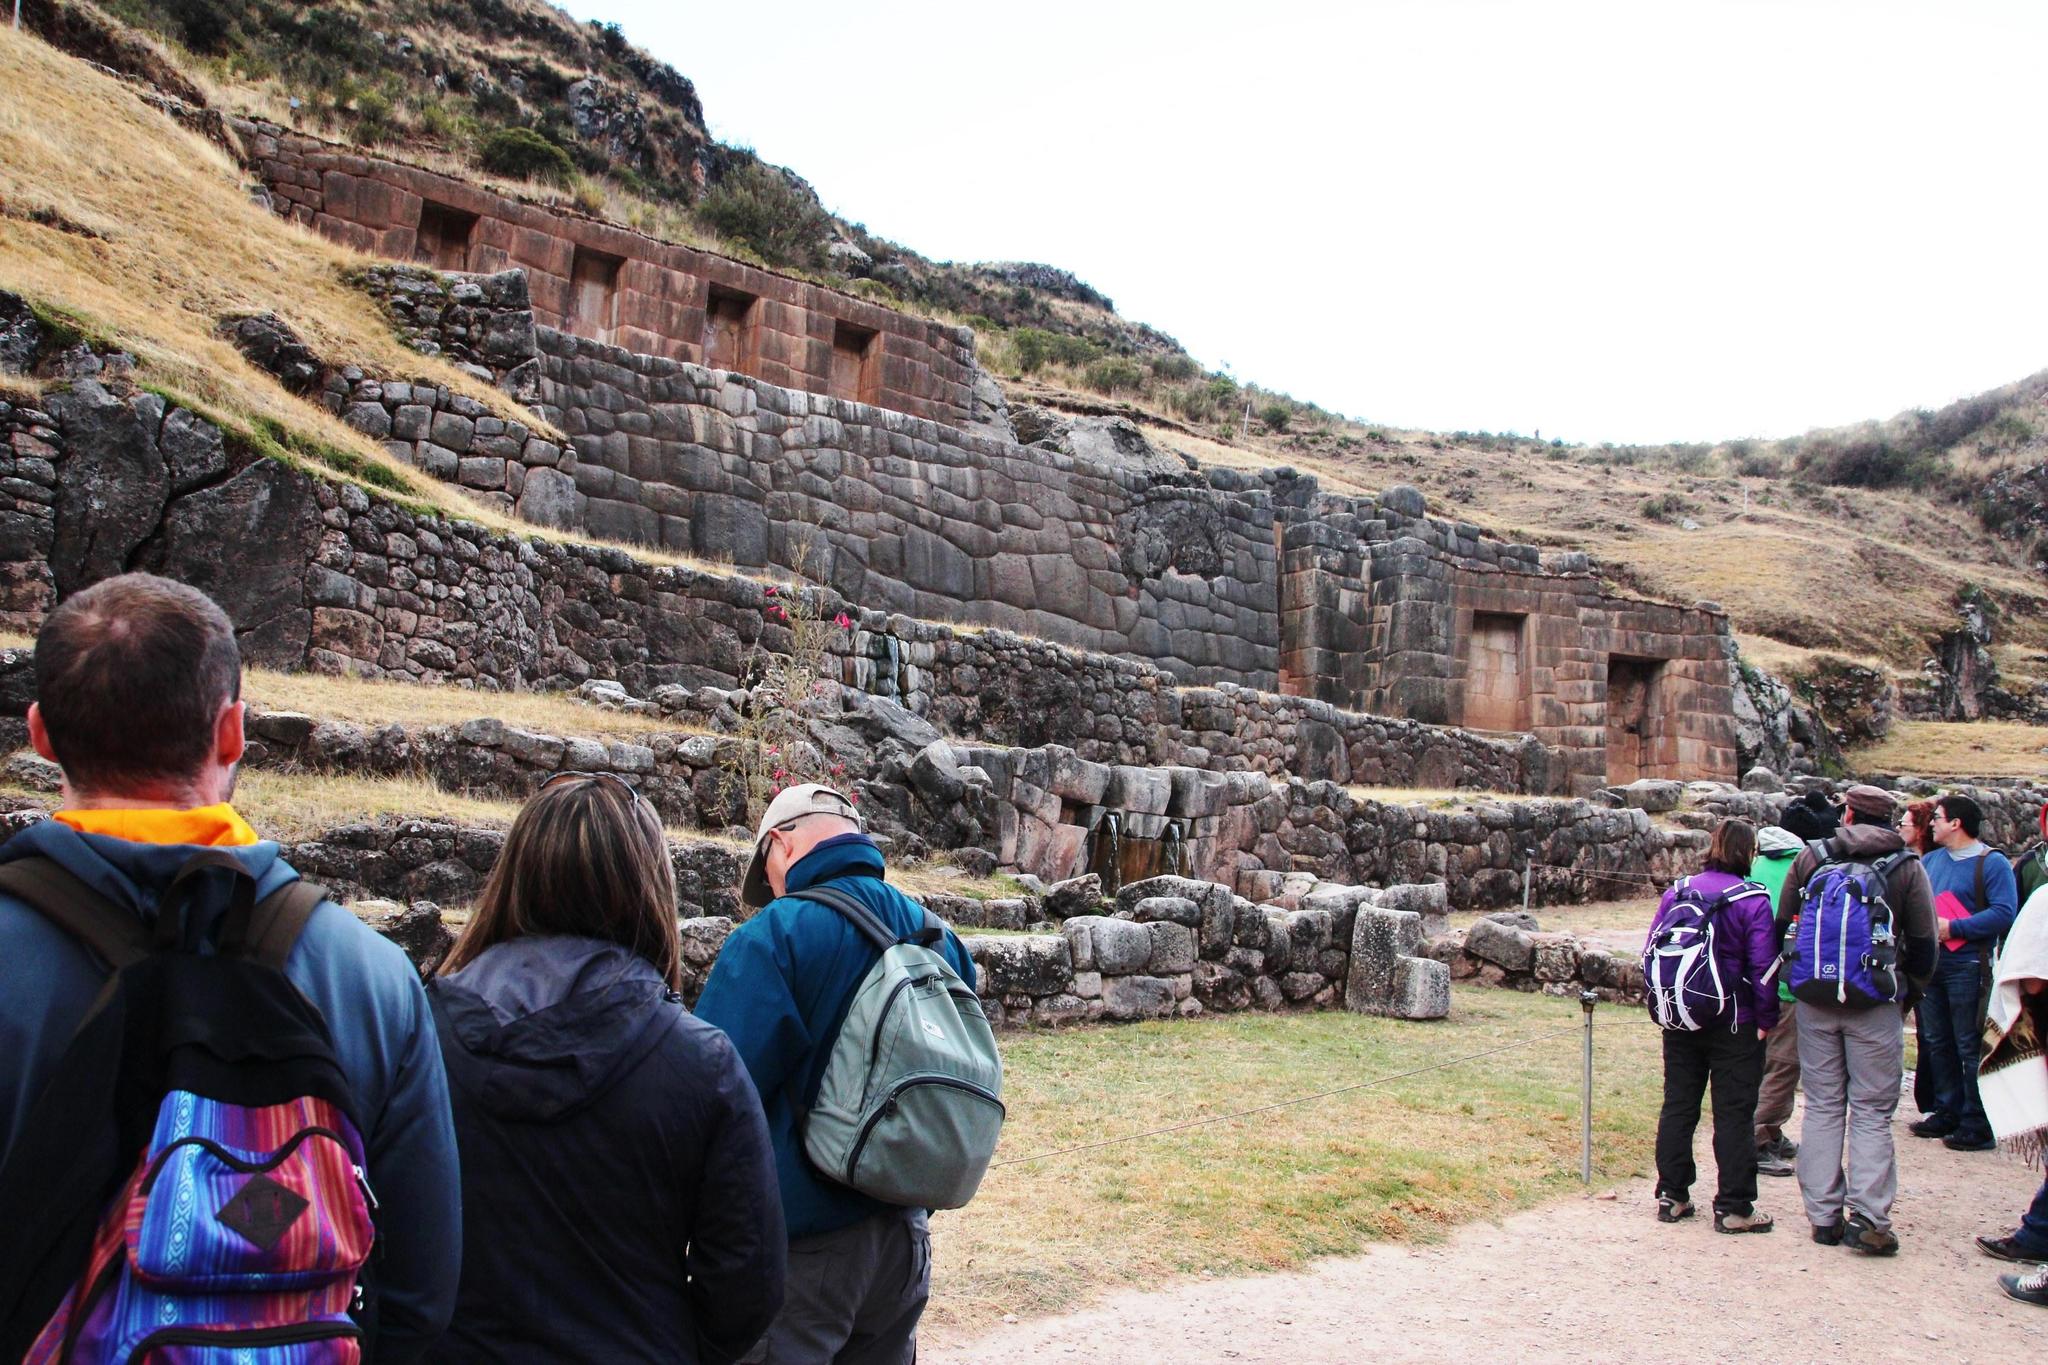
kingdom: Plantae
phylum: Tracheophyta
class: Magnoliopsida
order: Ericales
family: Polemoniaceae
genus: Cantua
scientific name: Cantua buxifolia
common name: Sacred-flower-of-the-incas
